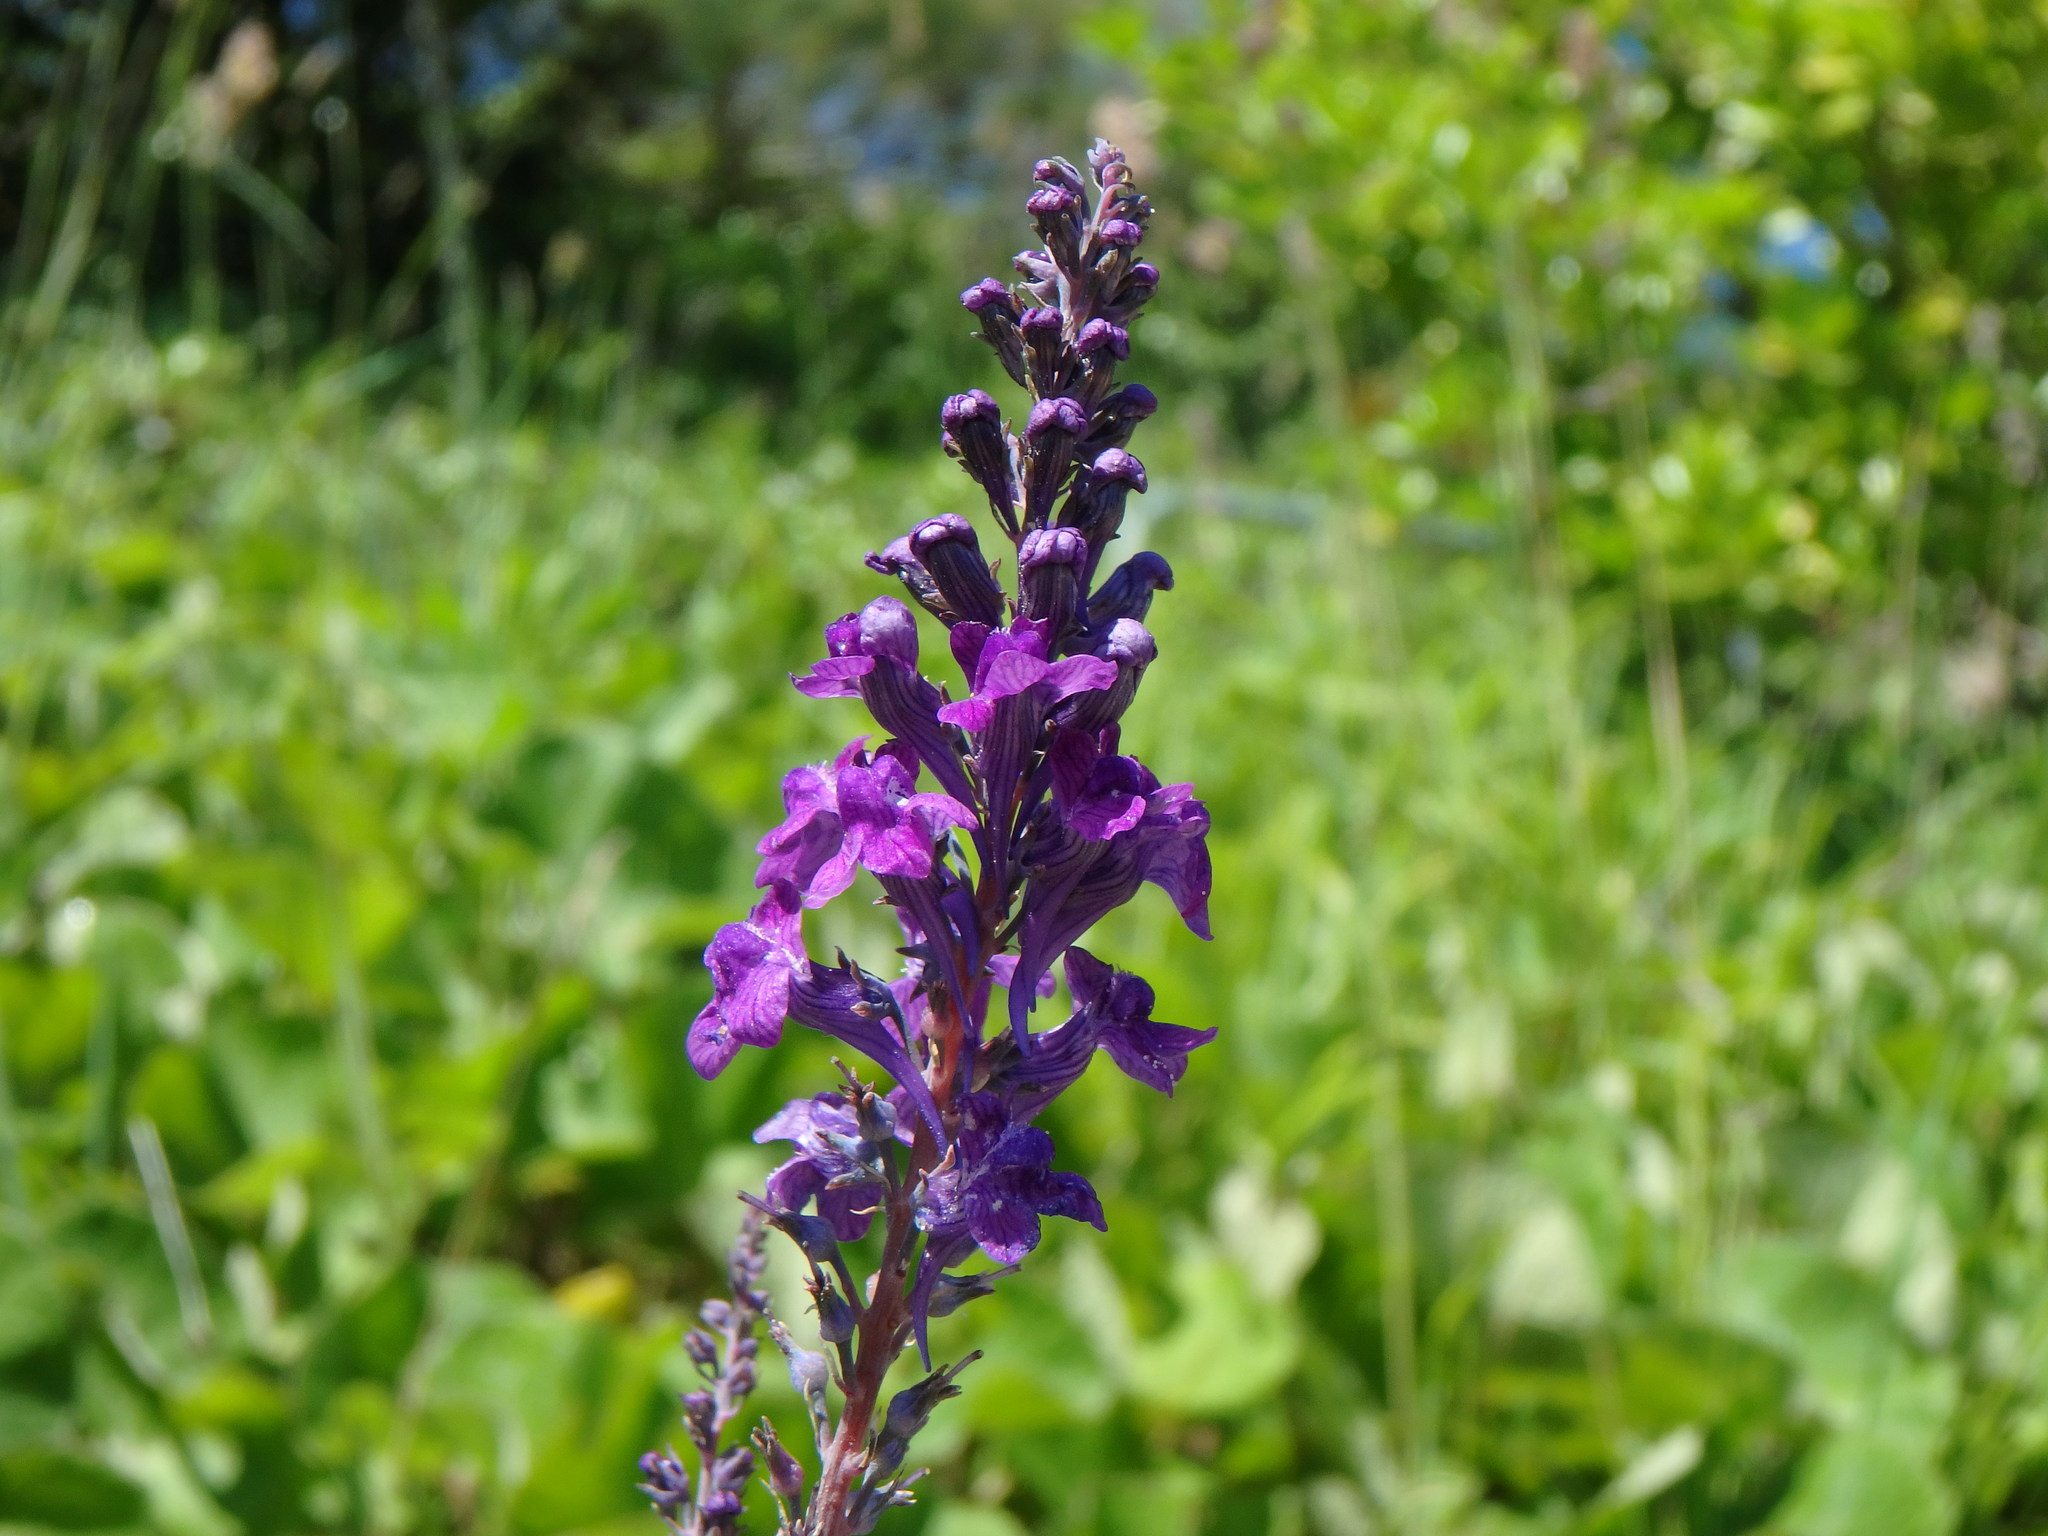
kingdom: Plantae
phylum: Tracheophyta
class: Magnoliopsida
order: Lamiales
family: Plantaginaceae
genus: Linaria
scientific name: Linaria purpurea
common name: Purple toadflax
